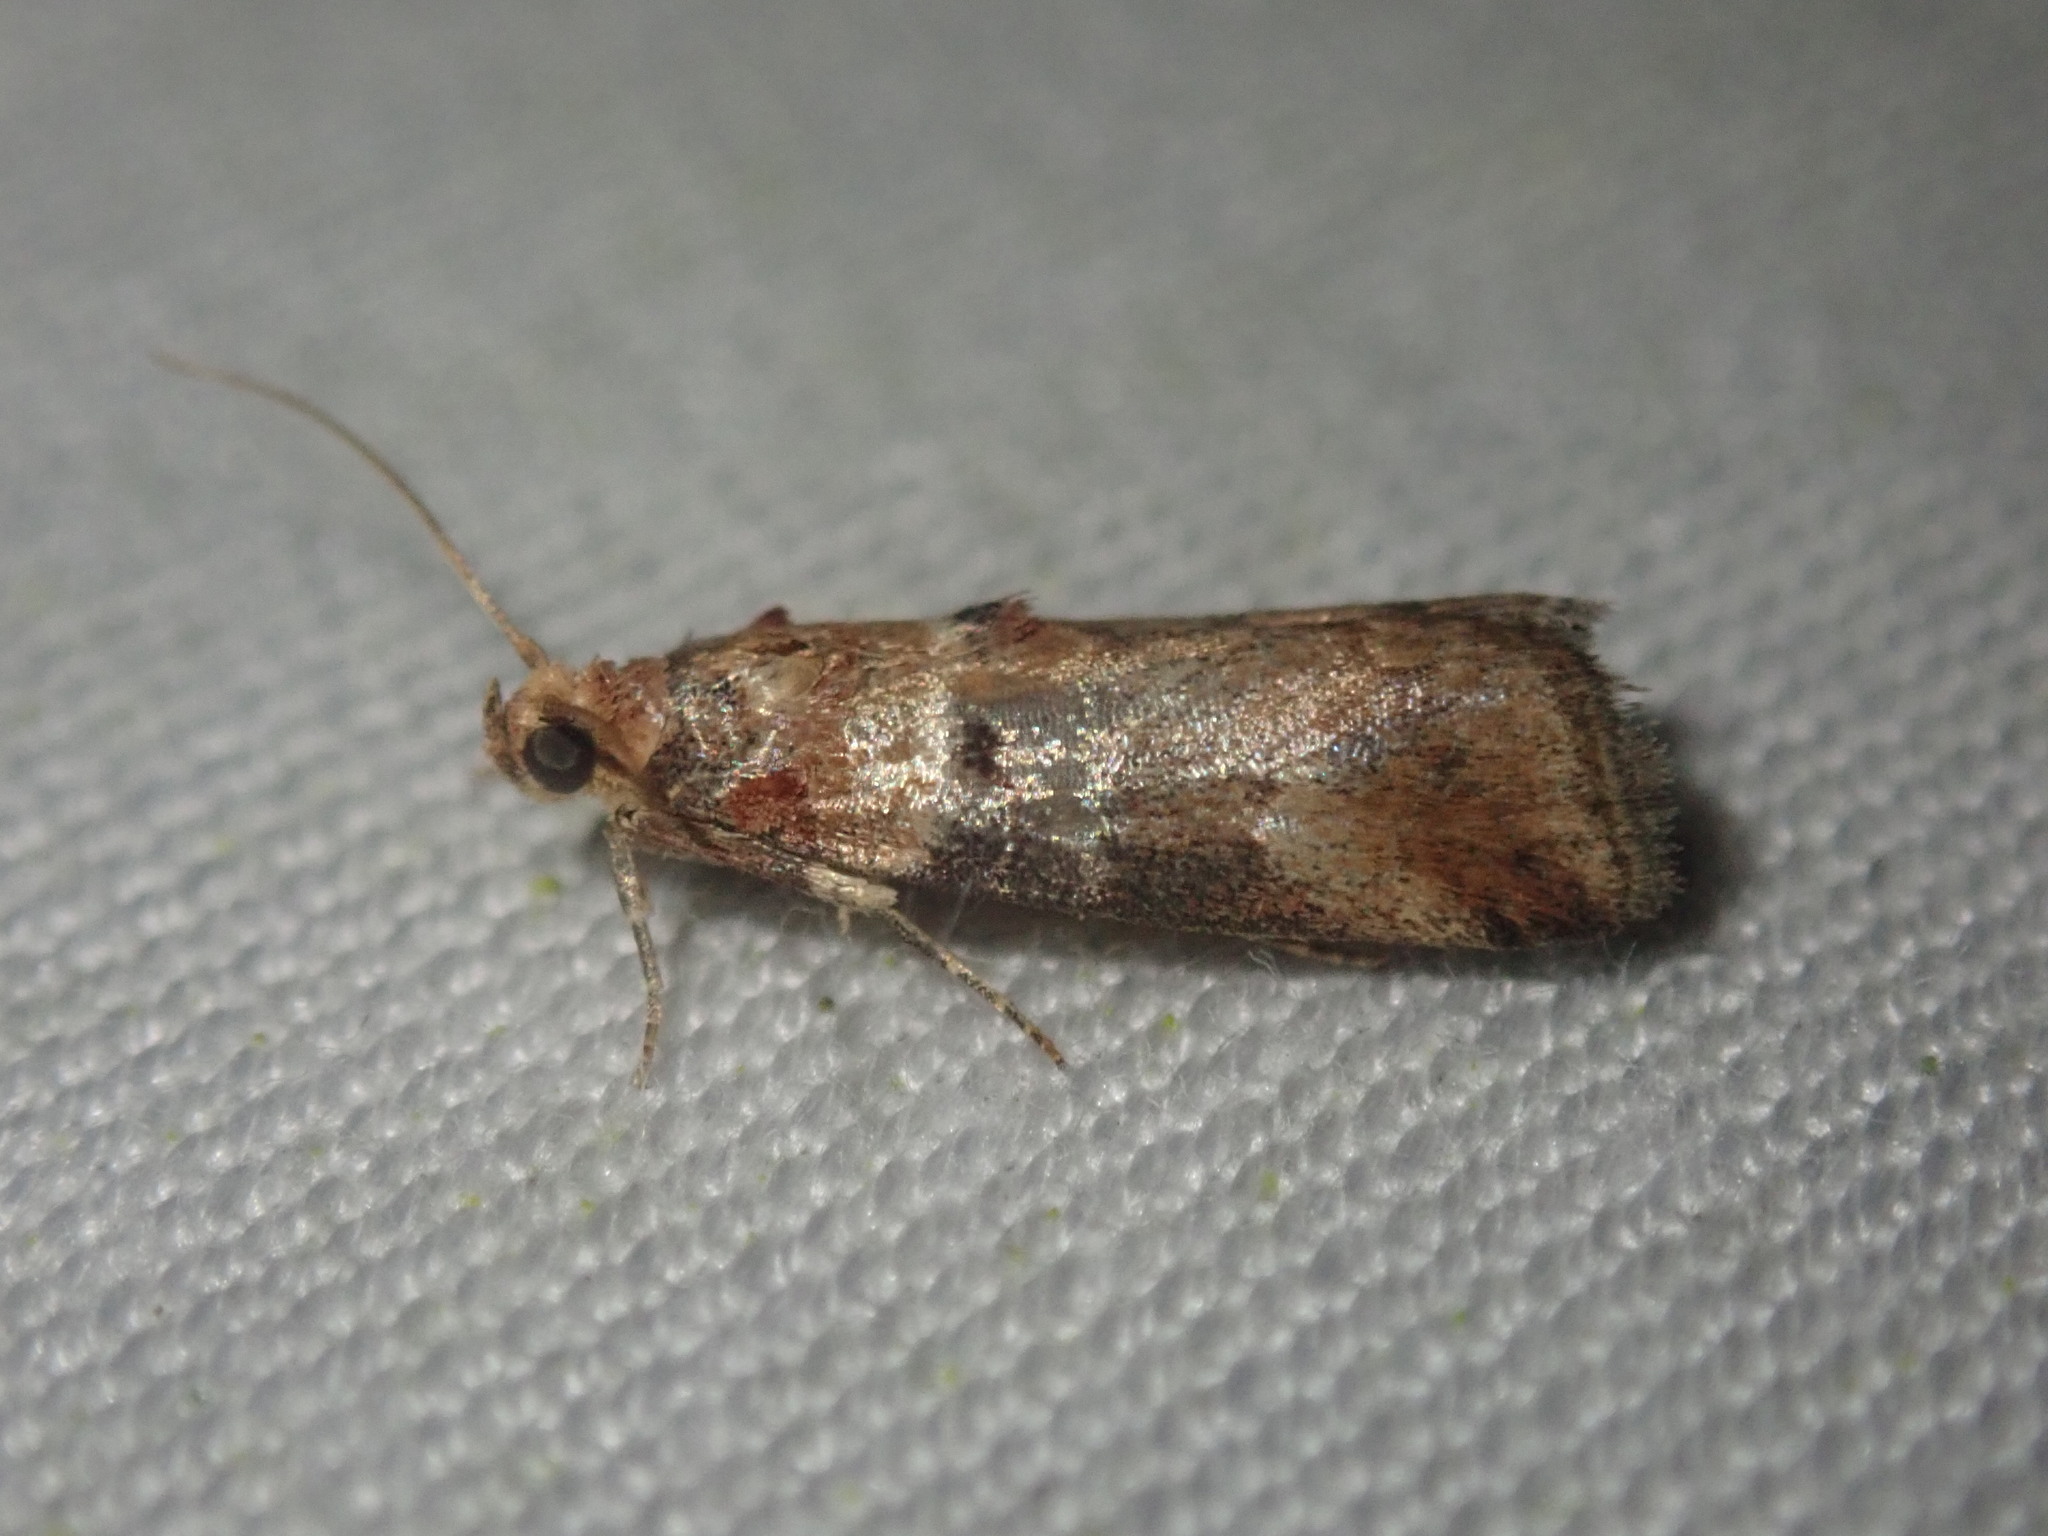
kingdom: Animalia
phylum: Arthropoda
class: Insecta
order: Lepidoptera
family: Pyralidae
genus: Acrobasis
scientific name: Acrobasis advenella
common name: Grey knot-horn
